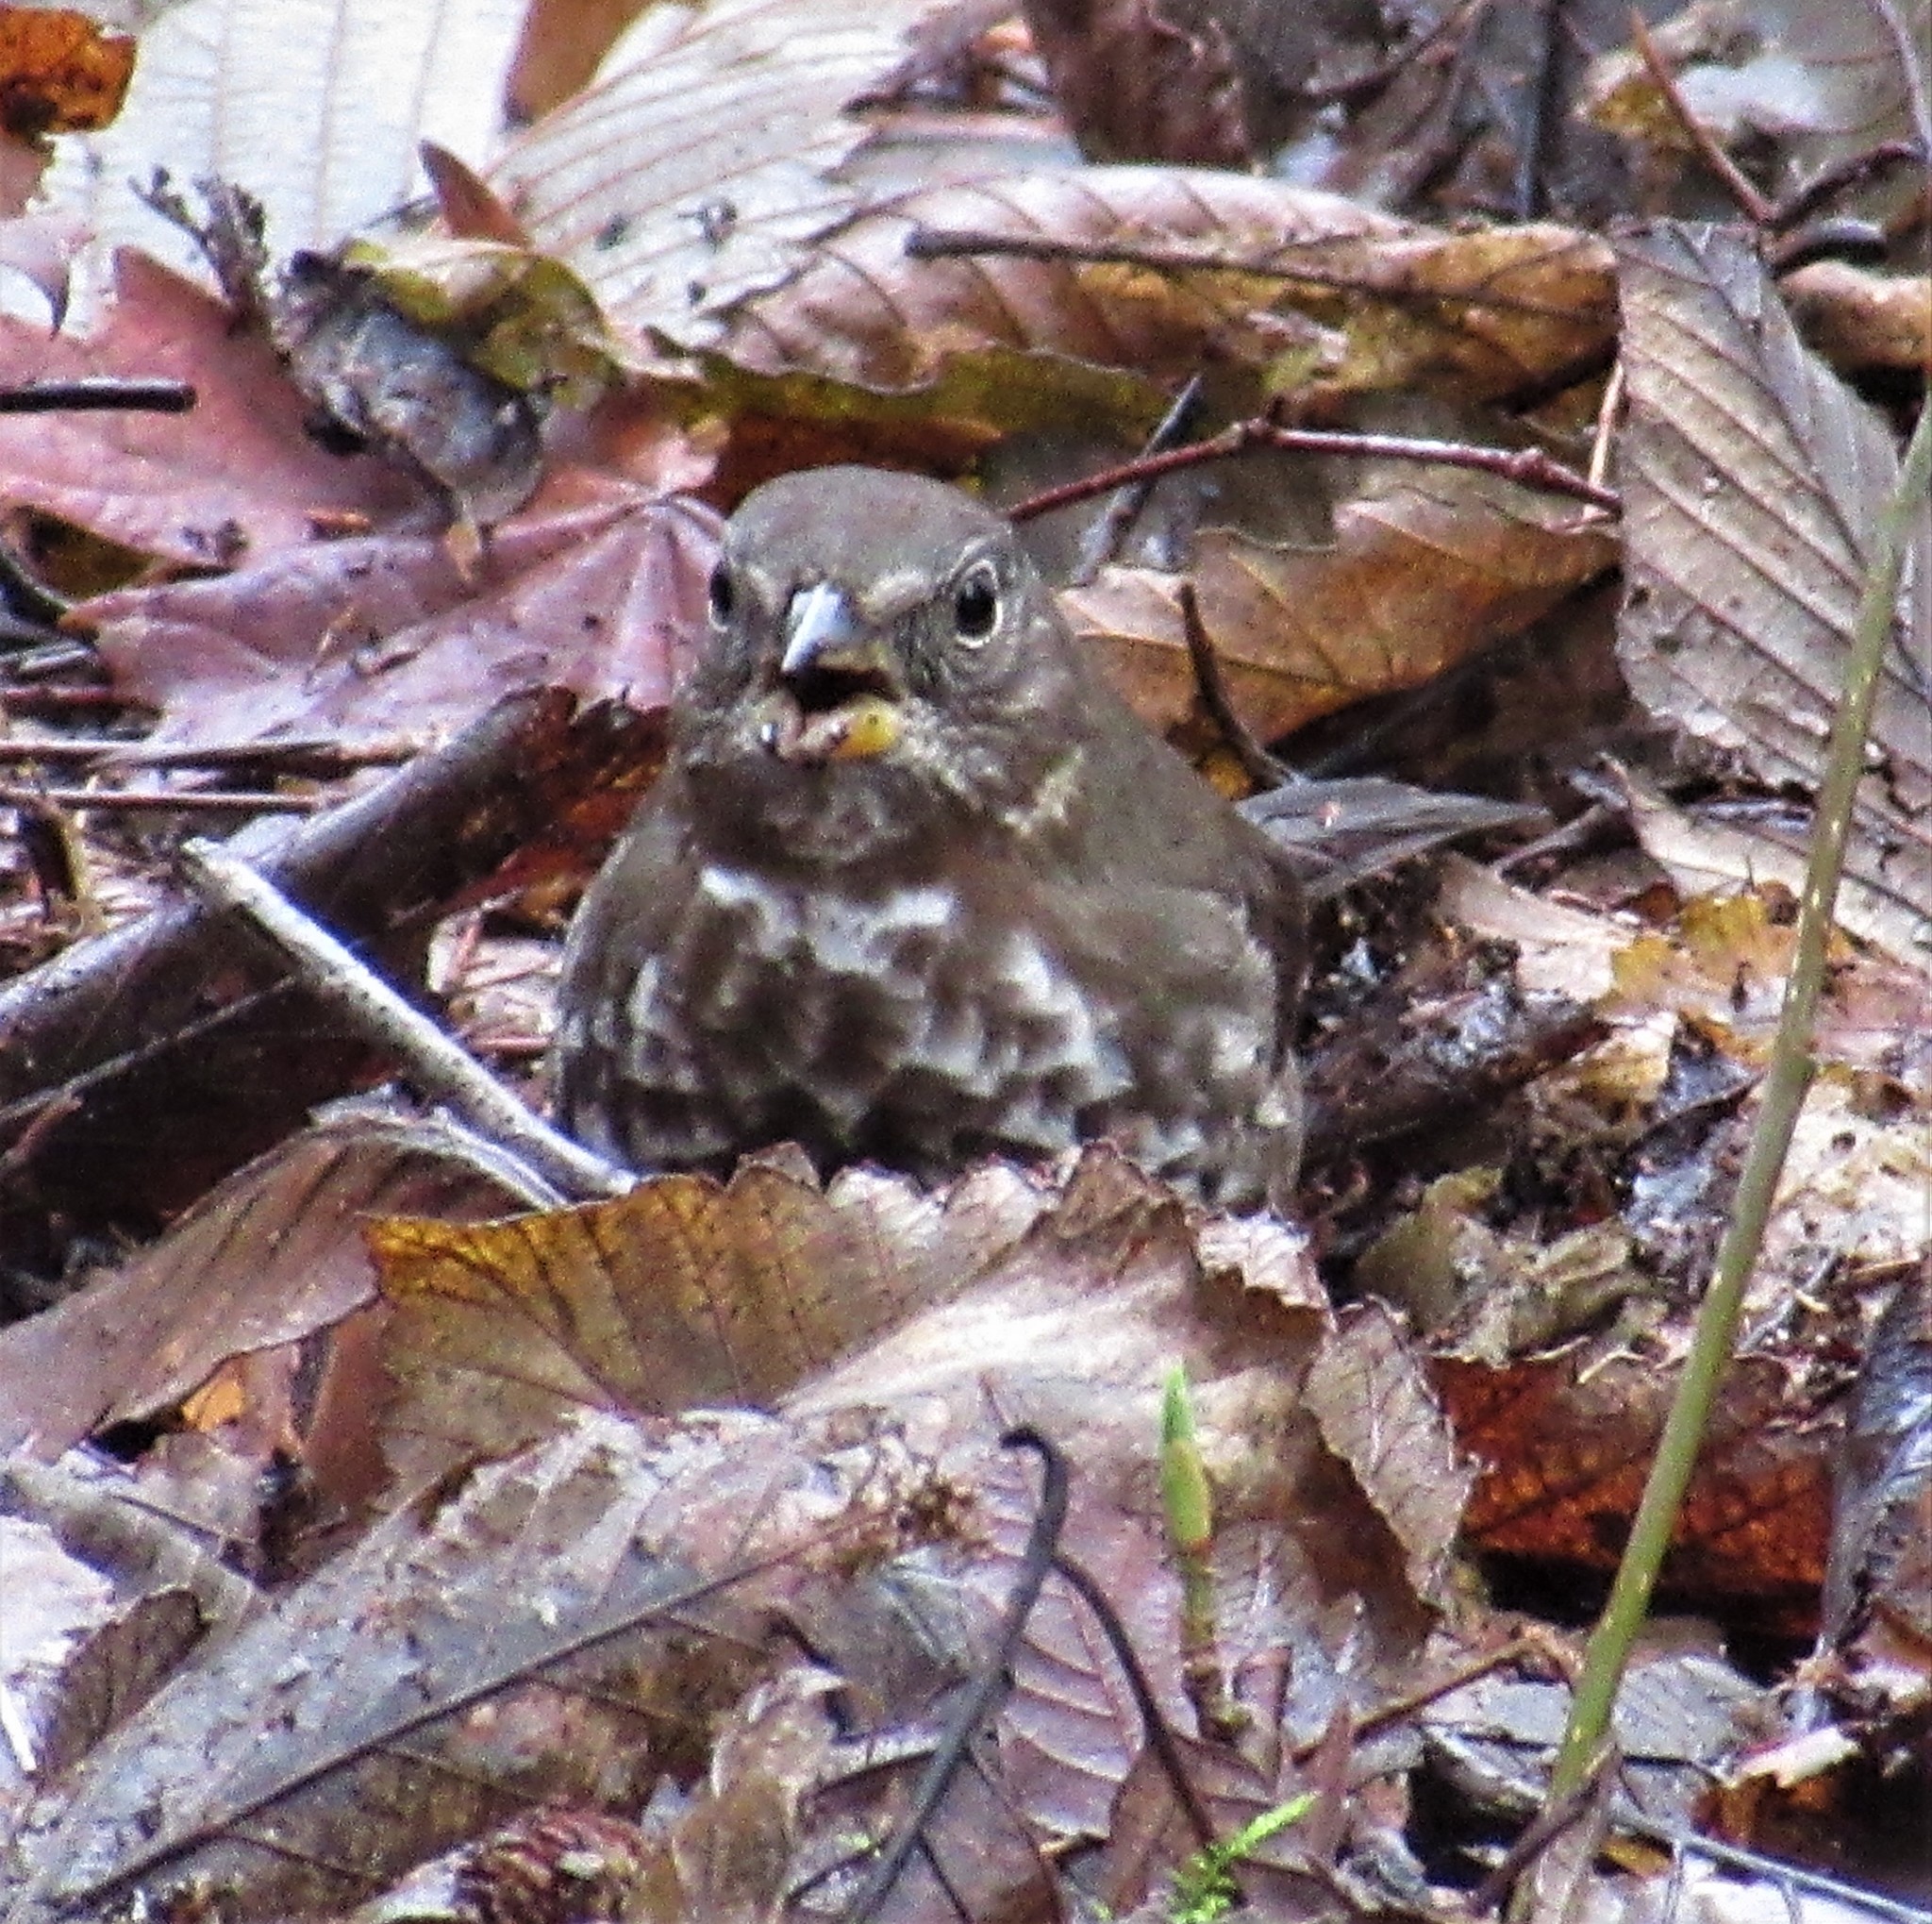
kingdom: Animalia
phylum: Chordata
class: Aves
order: Passeriformes
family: Passerellidae
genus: Passerella
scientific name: Passerella iliaca
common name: Fox sparrow
